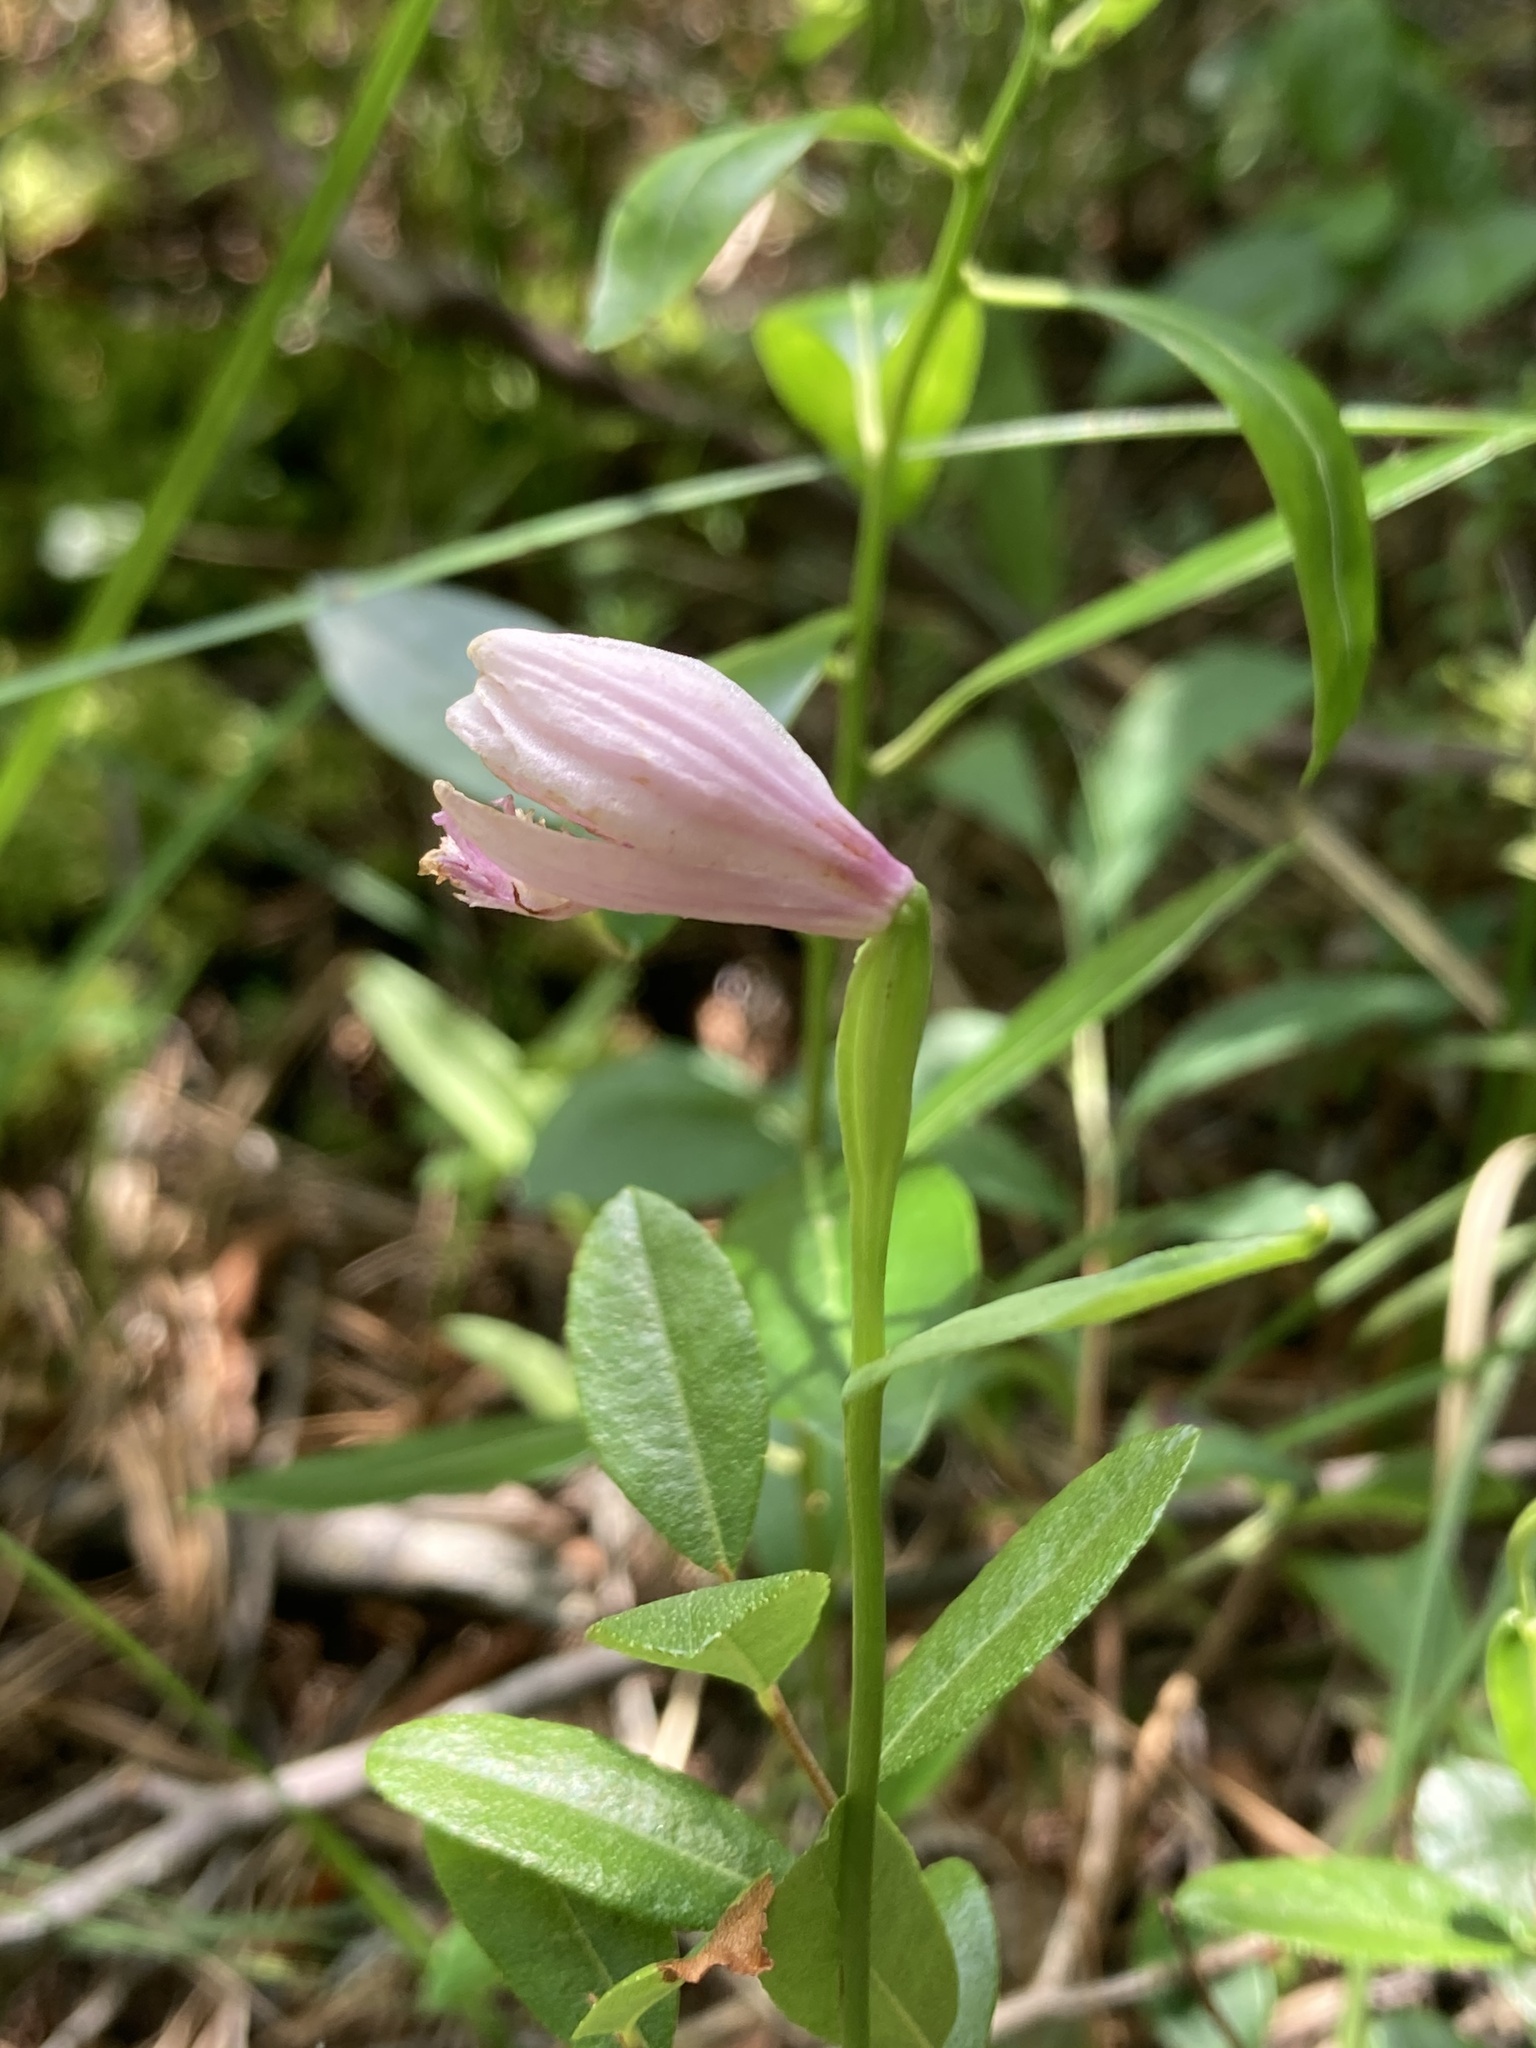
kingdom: Plantae
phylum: Tracheophyta
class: Liliopsida
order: Asparagales
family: Orchidaceae
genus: Pogonia
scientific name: Pogonia ophioglossoides
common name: Rose pogonia
